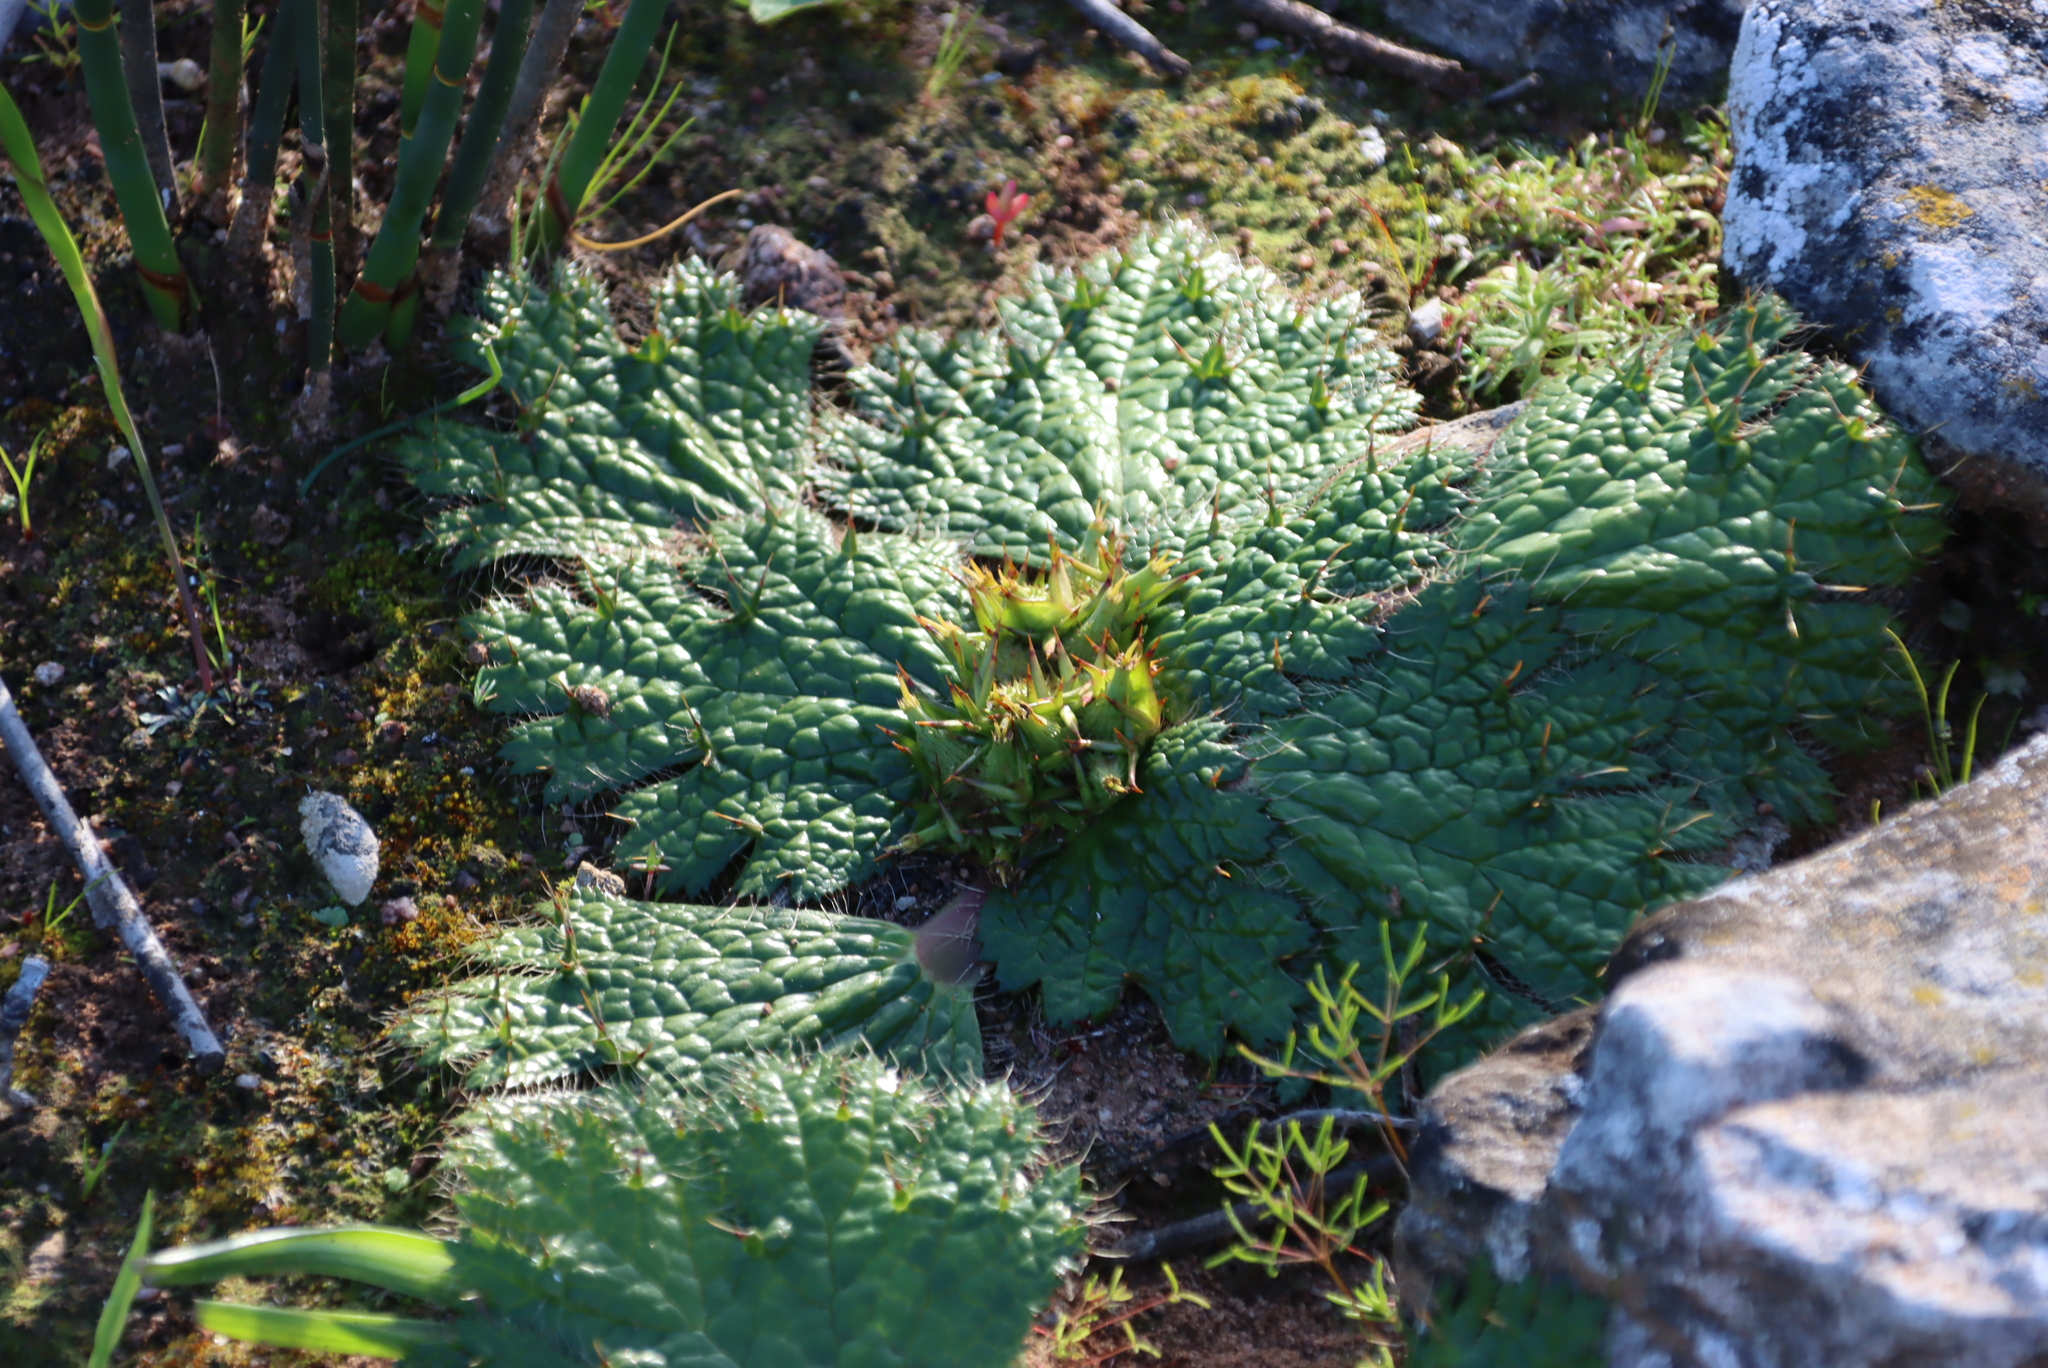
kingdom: Plantae
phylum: Tracheophyta
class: Magnoliopsida
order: Apiales
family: Apiaceae
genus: Arctopus
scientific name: Arctopus echinatus
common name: Platdoring
